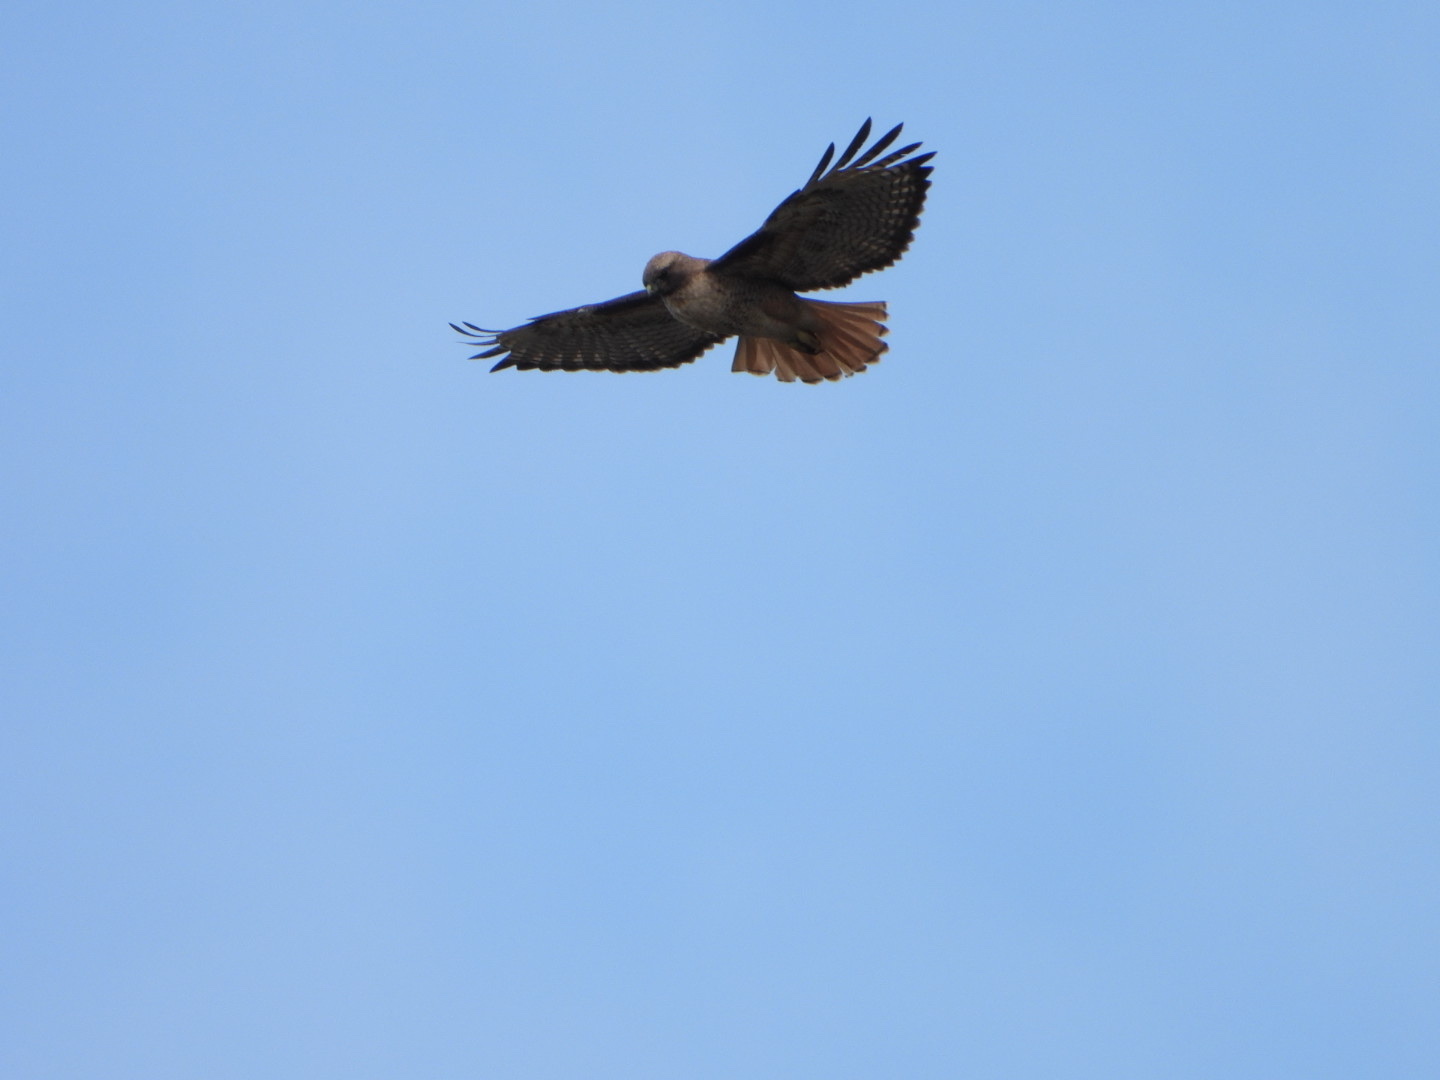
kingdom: Animalia
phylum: Chordata
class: Aves
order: Accipitriformes
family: Accipitridae
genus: Buteo
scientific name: Buteo jamaicensis
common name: Red-tailed hawk
